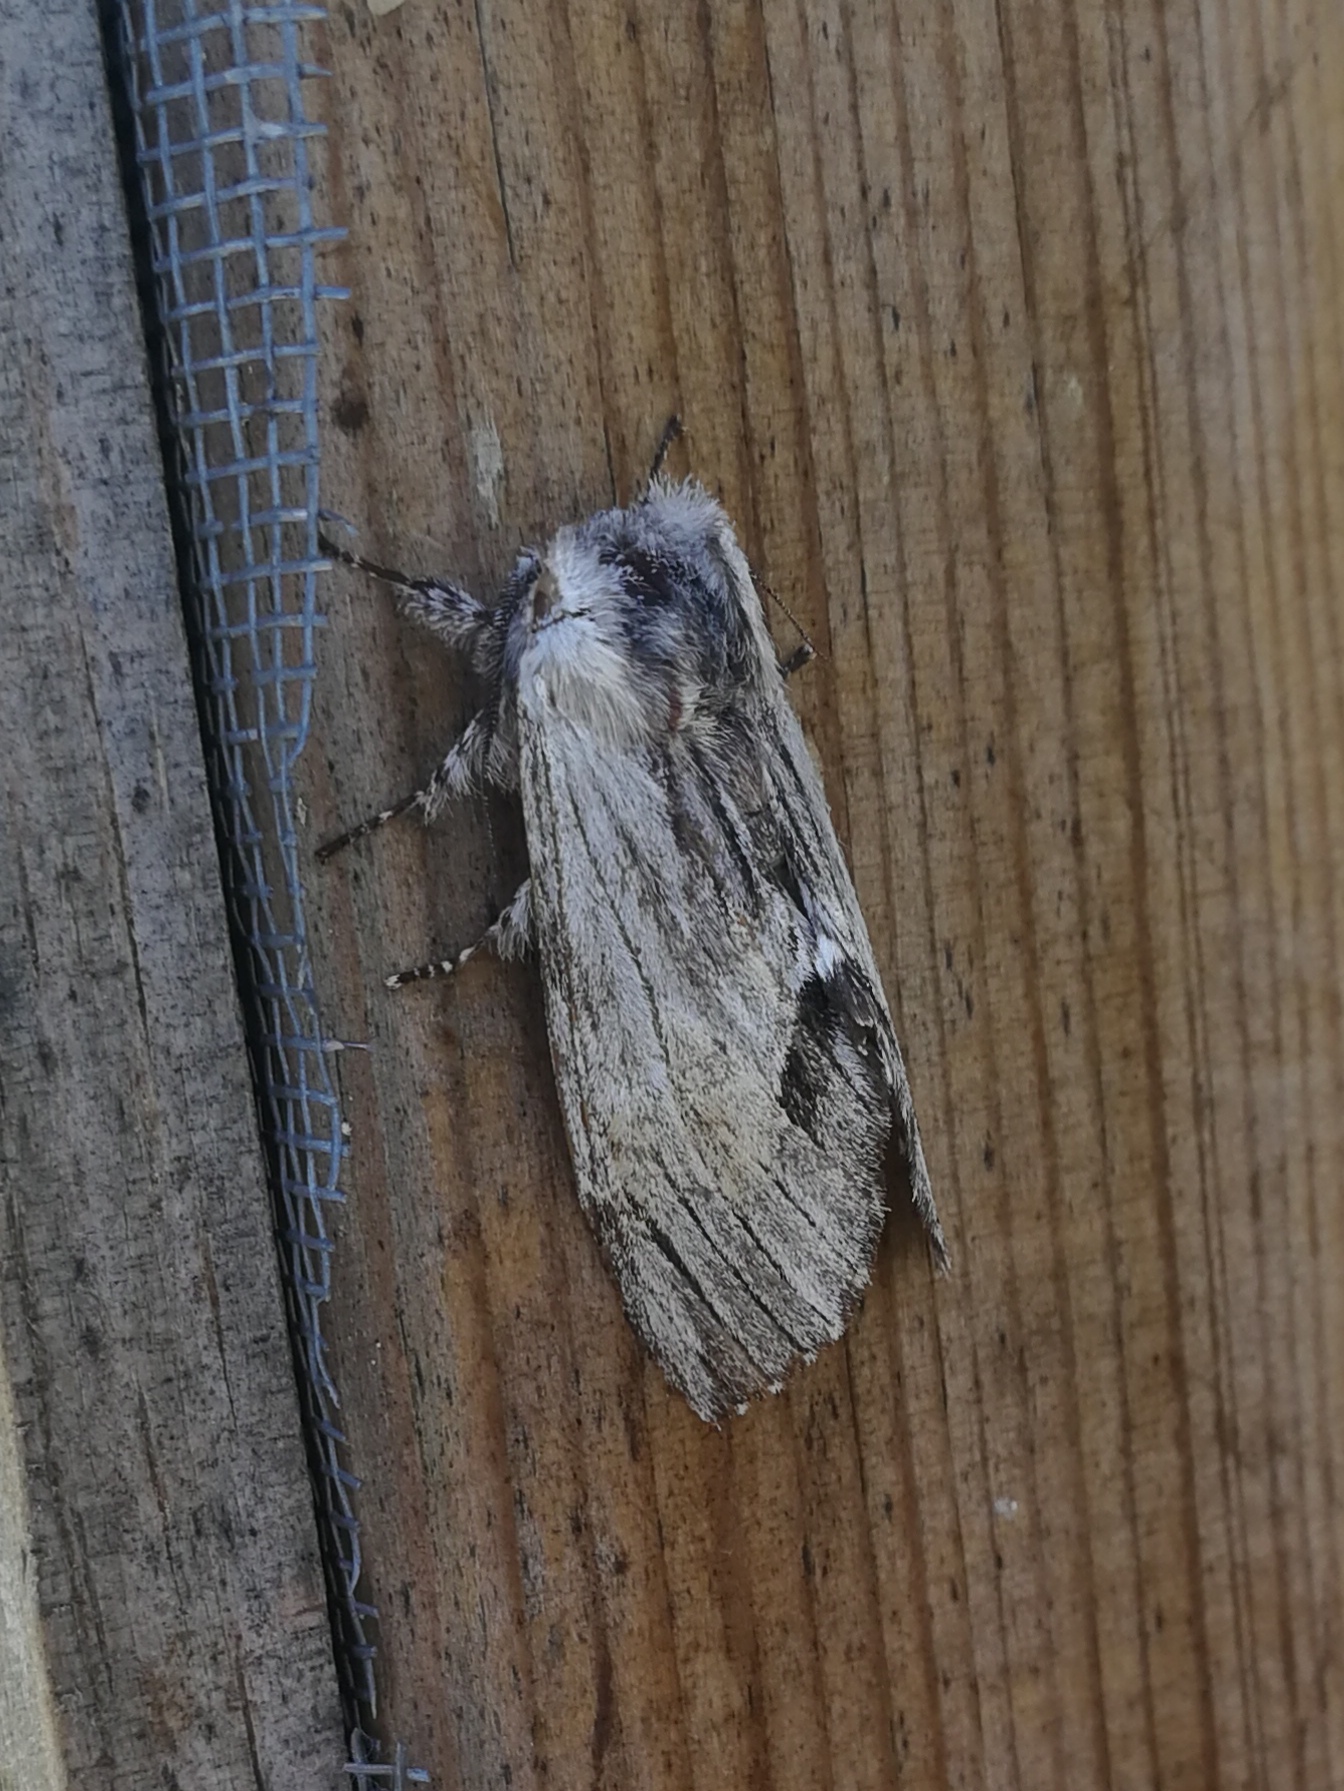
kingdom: Animalia
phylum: Arthropoda
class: Insecta
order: Lepidoptera
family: Notodontidae
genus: Harpyia
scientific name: Harpyia milhauseri
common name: Tawny prominent
